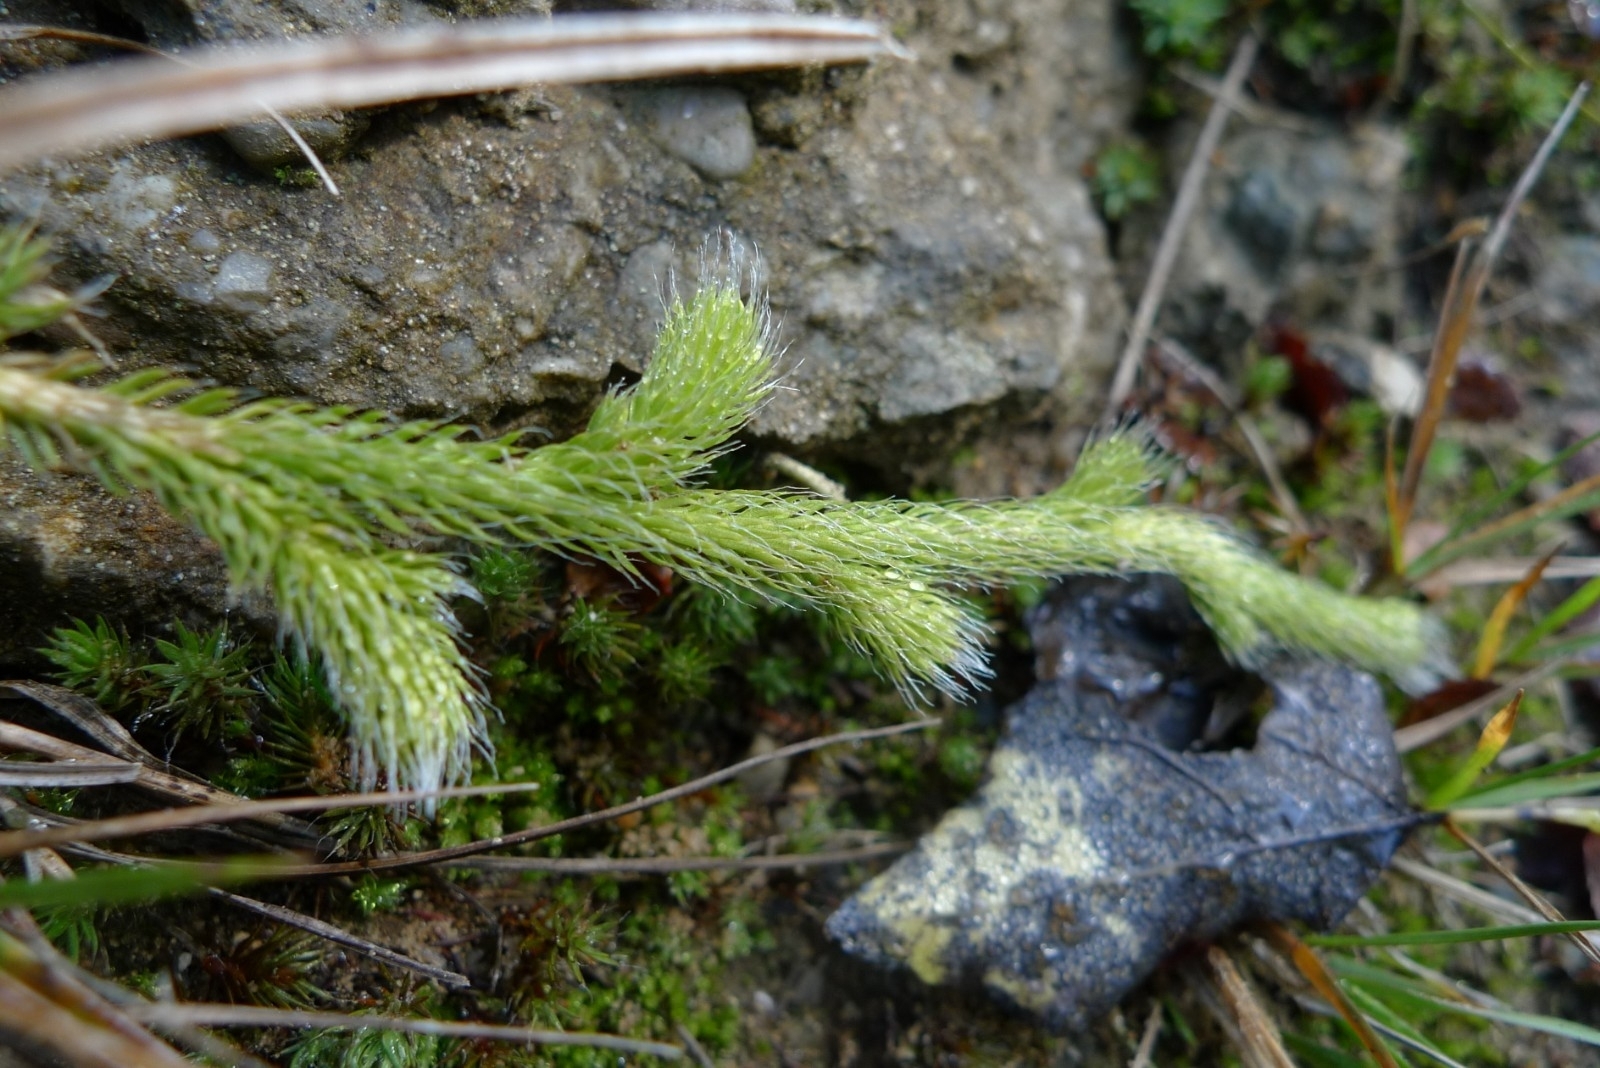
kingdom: Plantae
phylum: Tracheophyta
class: Lycopodiopsida
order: Lycopodiales
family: Lycopodiaceae
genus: Lycopodium
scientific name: Lycopodium clavatum
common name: Stag's-horn clubmoss
